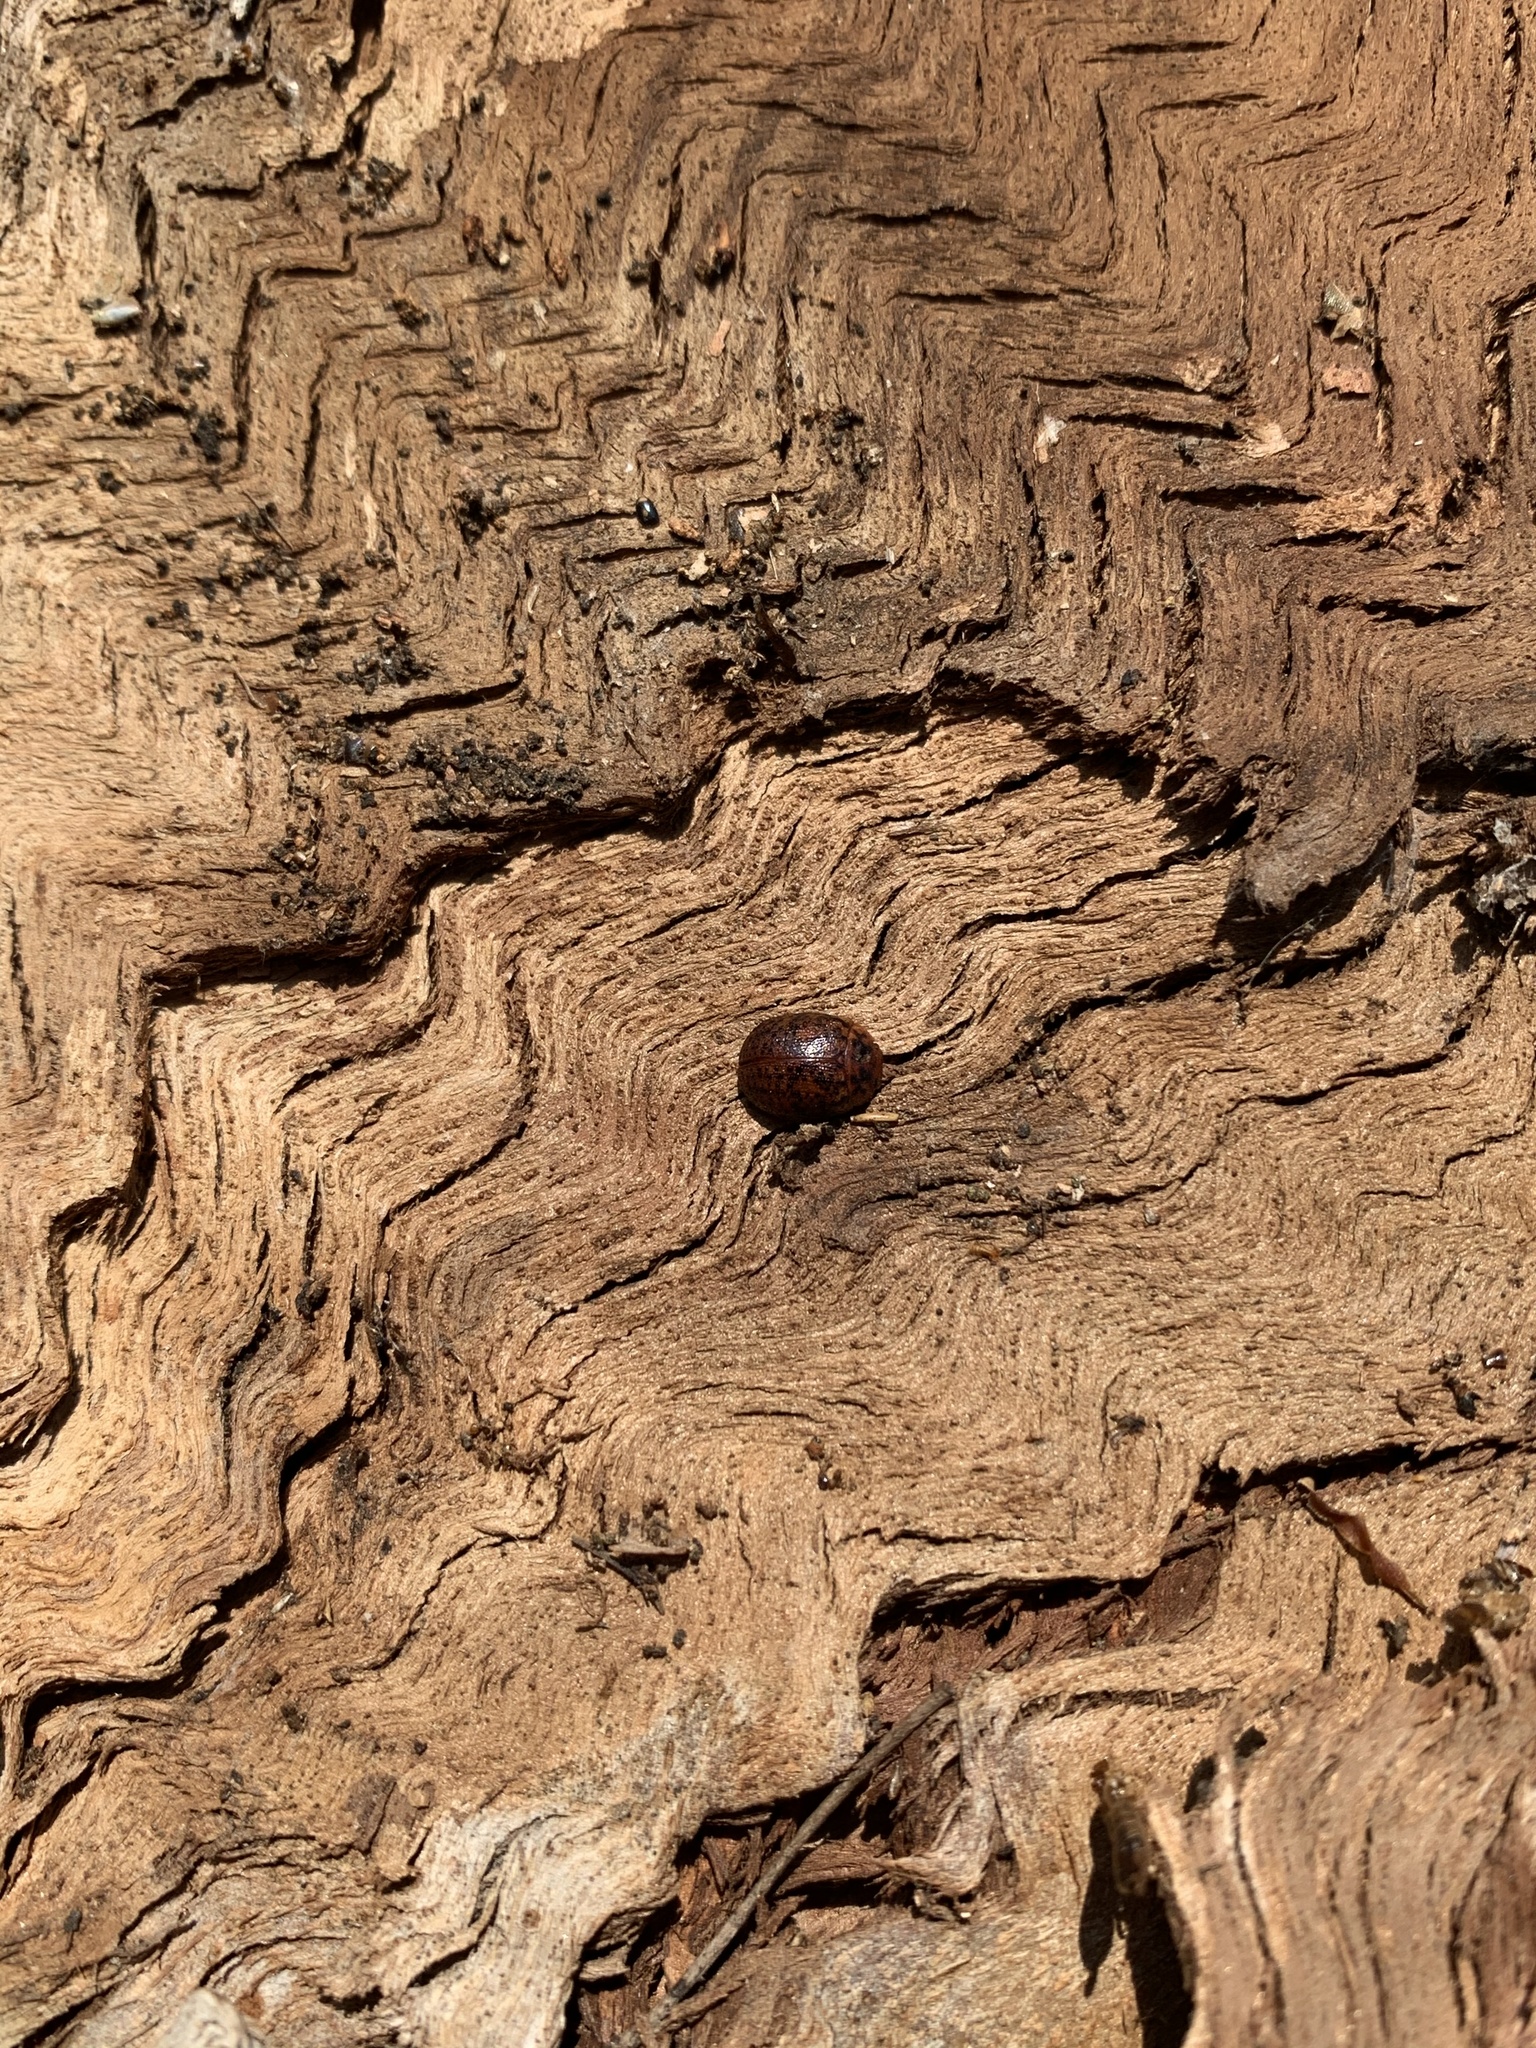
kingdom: Animalia
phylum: Arthropoda
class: Insecta
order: Coleoptera
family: Chrysomelidae
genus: Trachymela
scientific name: Trachymela sloanei
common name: Australian tortoise beetle
